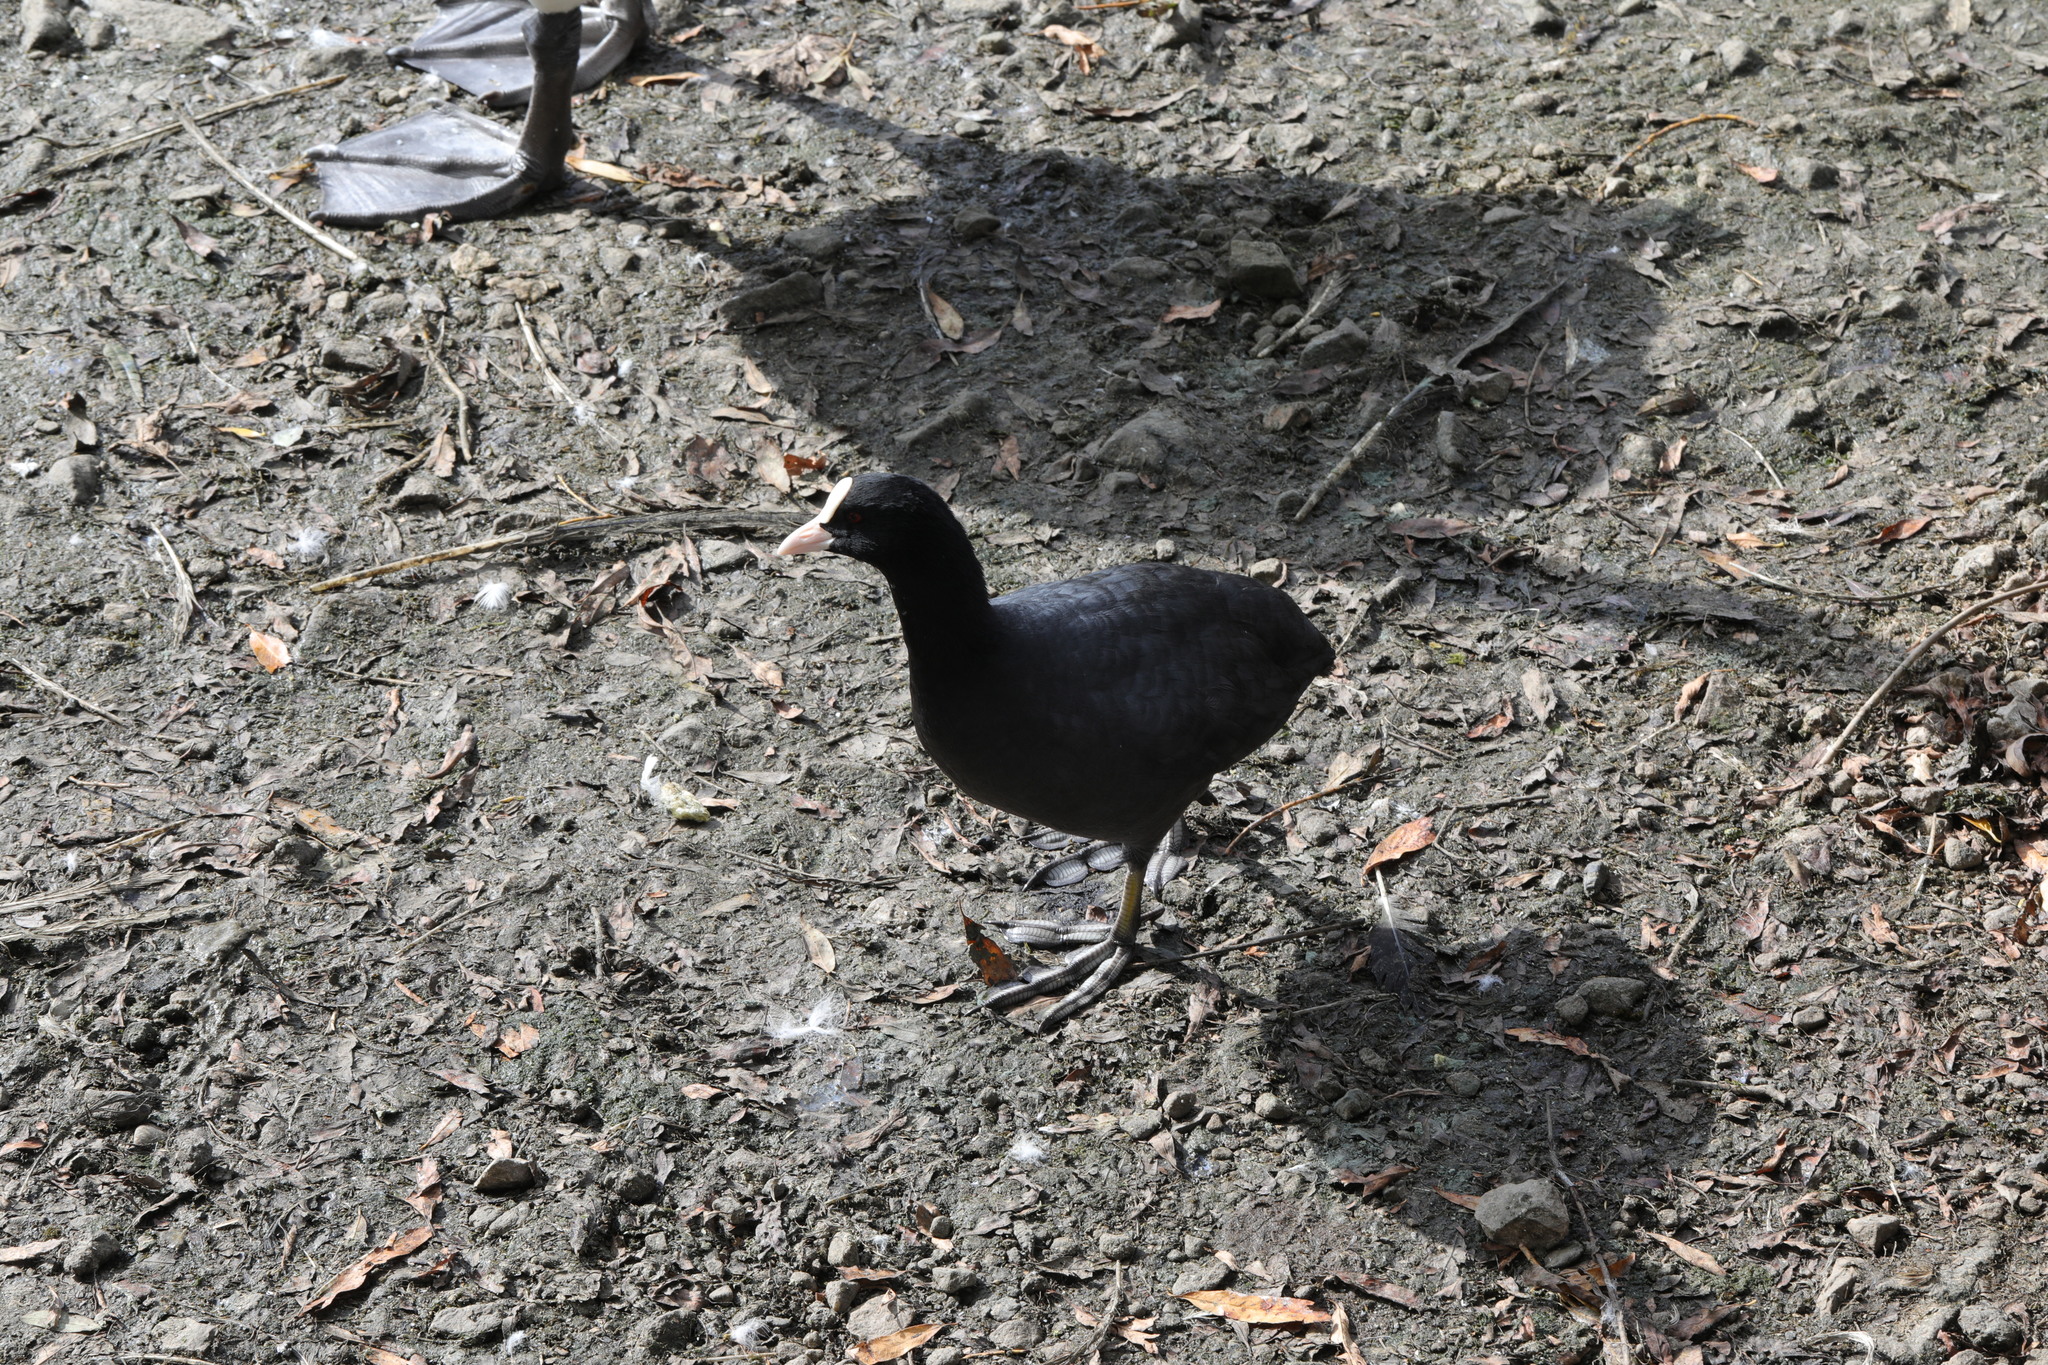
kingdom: Animalia
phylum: Chordata
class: Aves
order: Gruiformes
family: Rallidae
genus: Fulica
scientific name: Fulica atra
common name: Eurasian coot
